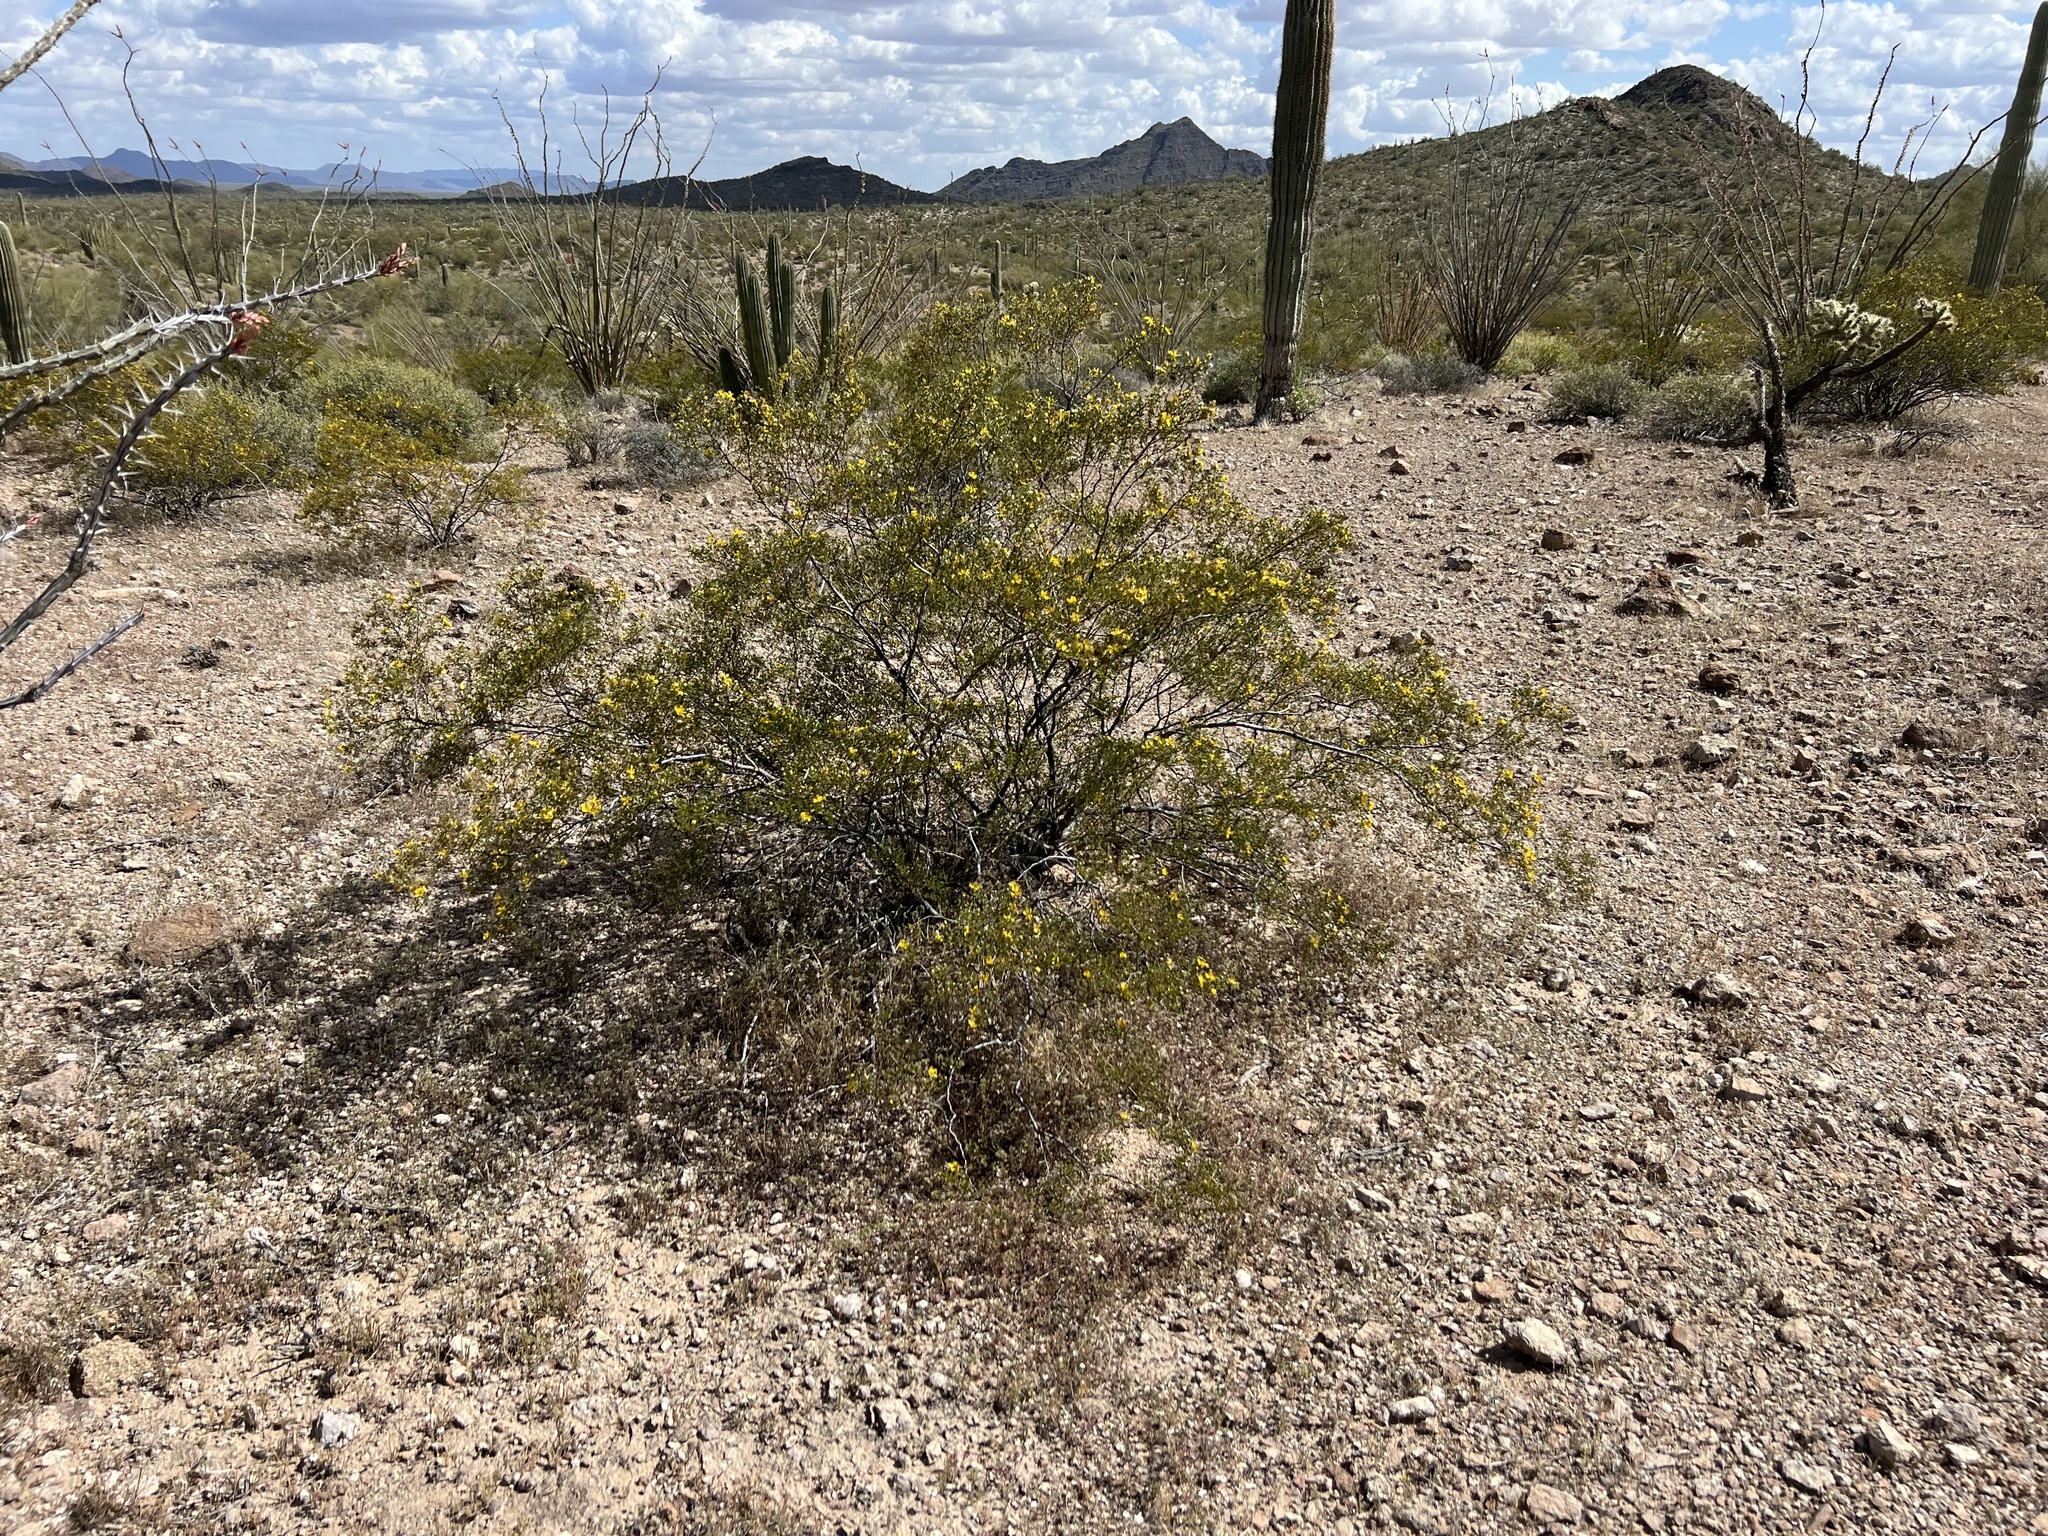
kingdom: Plantae
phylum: Tracheophyta
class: Magnoliopsida
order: Zygophyllales
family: Zygophyllaceae
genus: Larrea
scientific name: Larrea tridentata
